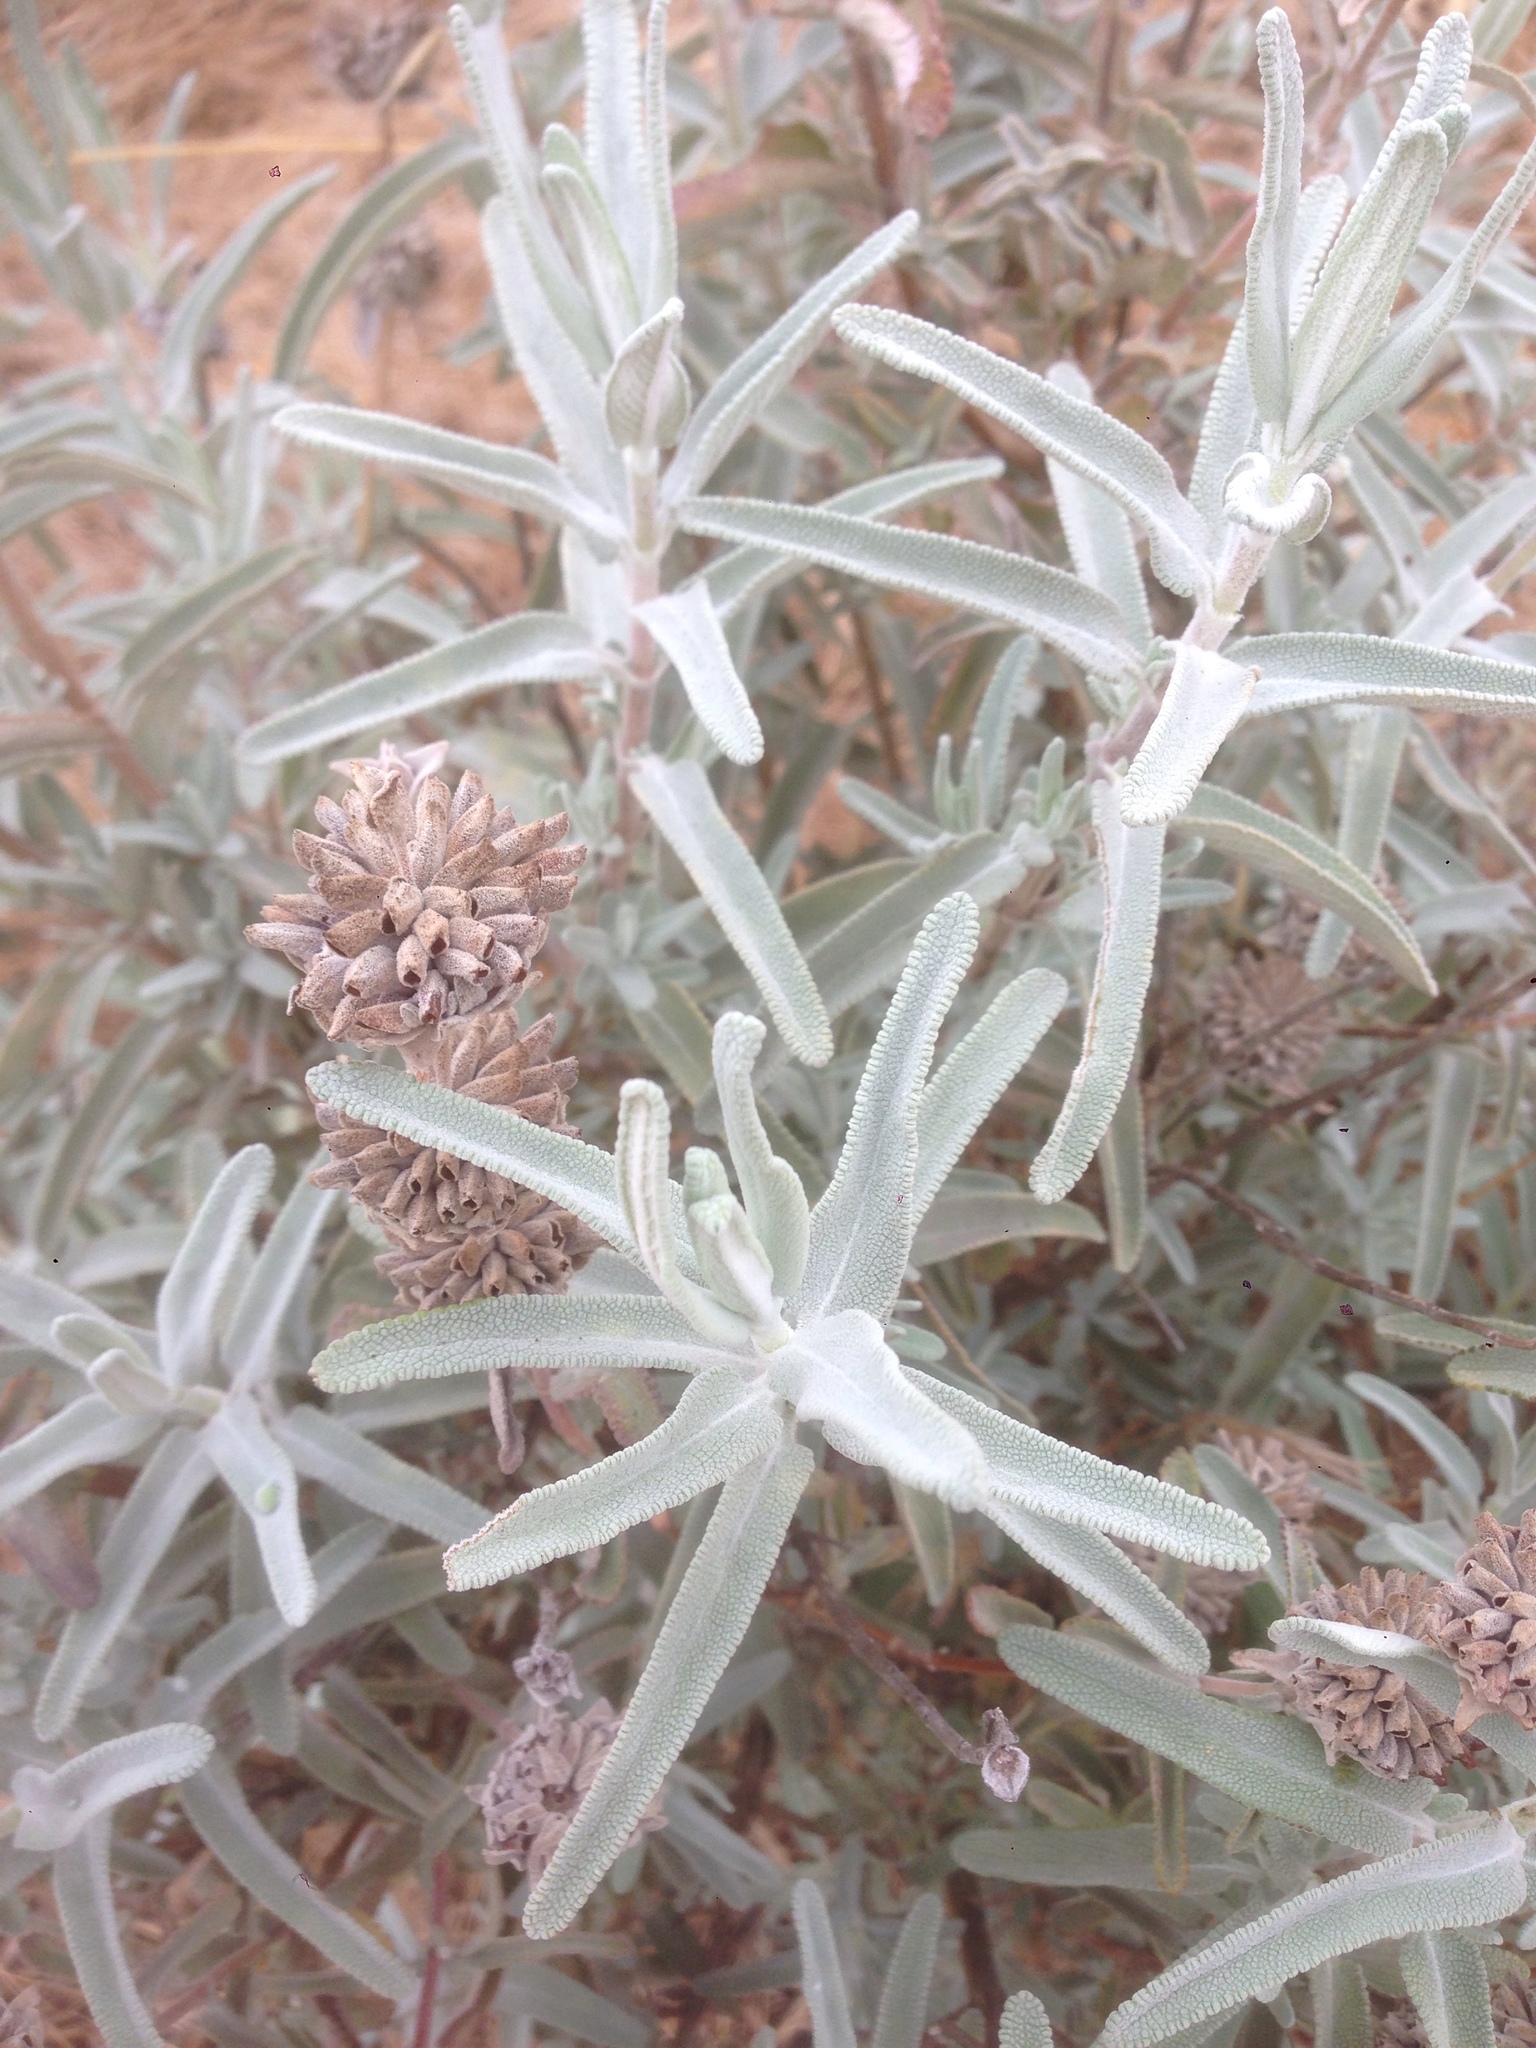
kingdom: Plantae
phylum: Tracheophyta
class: Magnoliopsida
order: Lamiales
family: Lamiaceae
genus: Salvia
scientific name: Salvia leucophylla
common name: Purple sage
